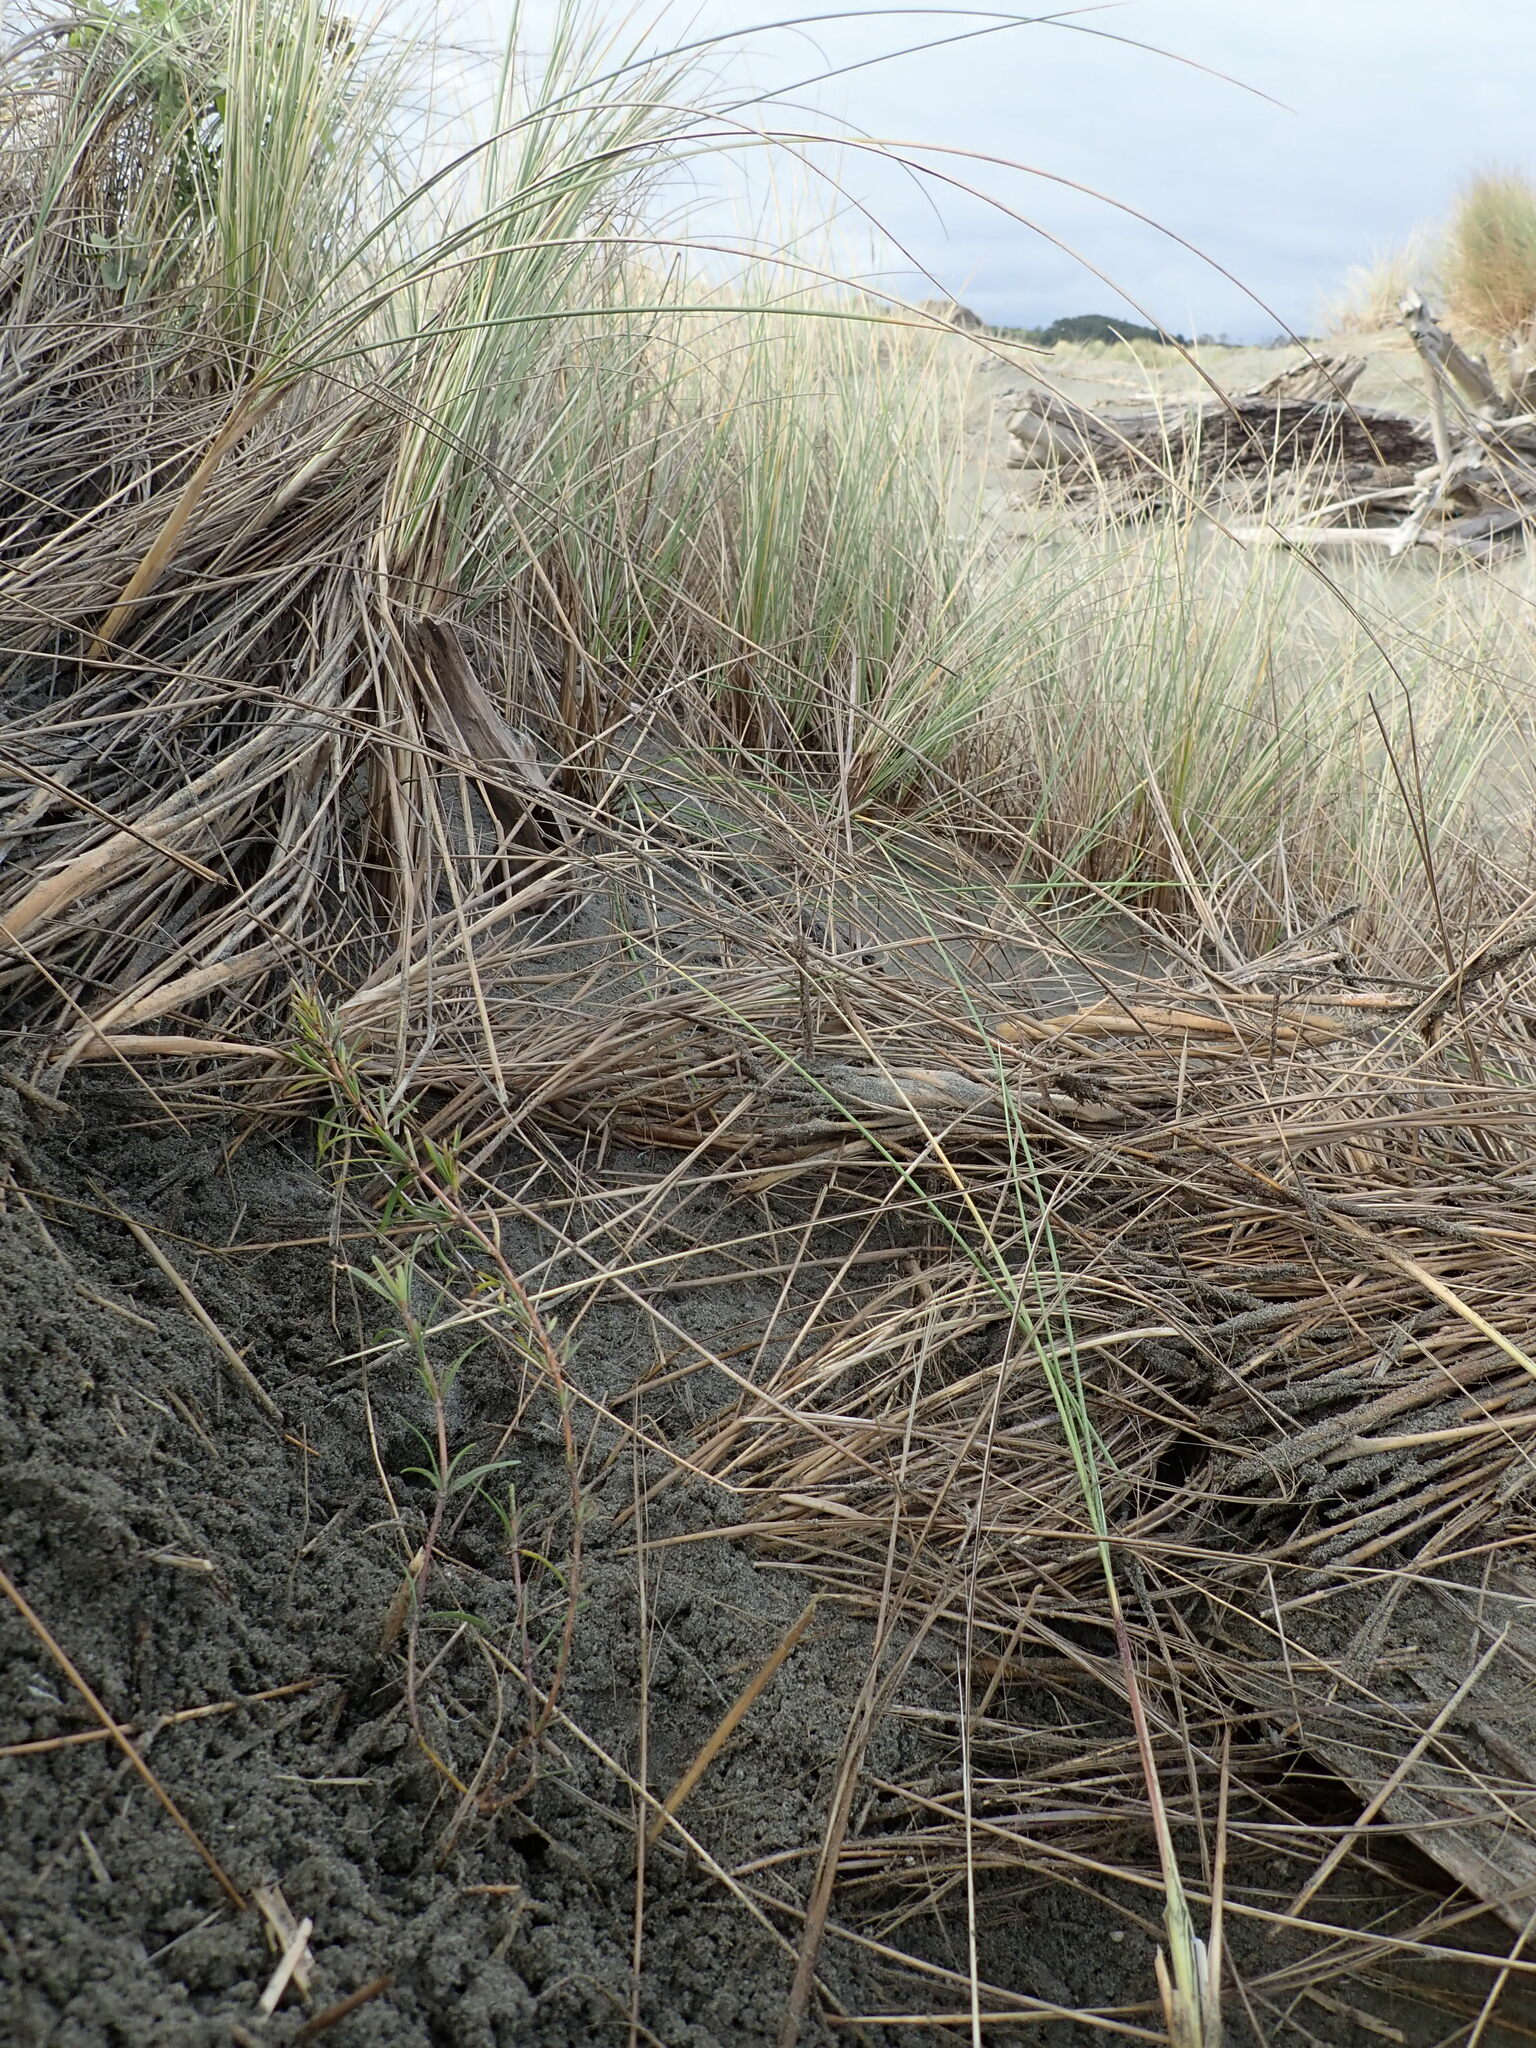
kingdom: Plantae
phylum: Tracheophyta
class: Magnoliopsida
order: Gentianales
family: Rubiaceae
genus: Coprosma
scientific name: Coprosma acerosa
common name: Sand coprosma
